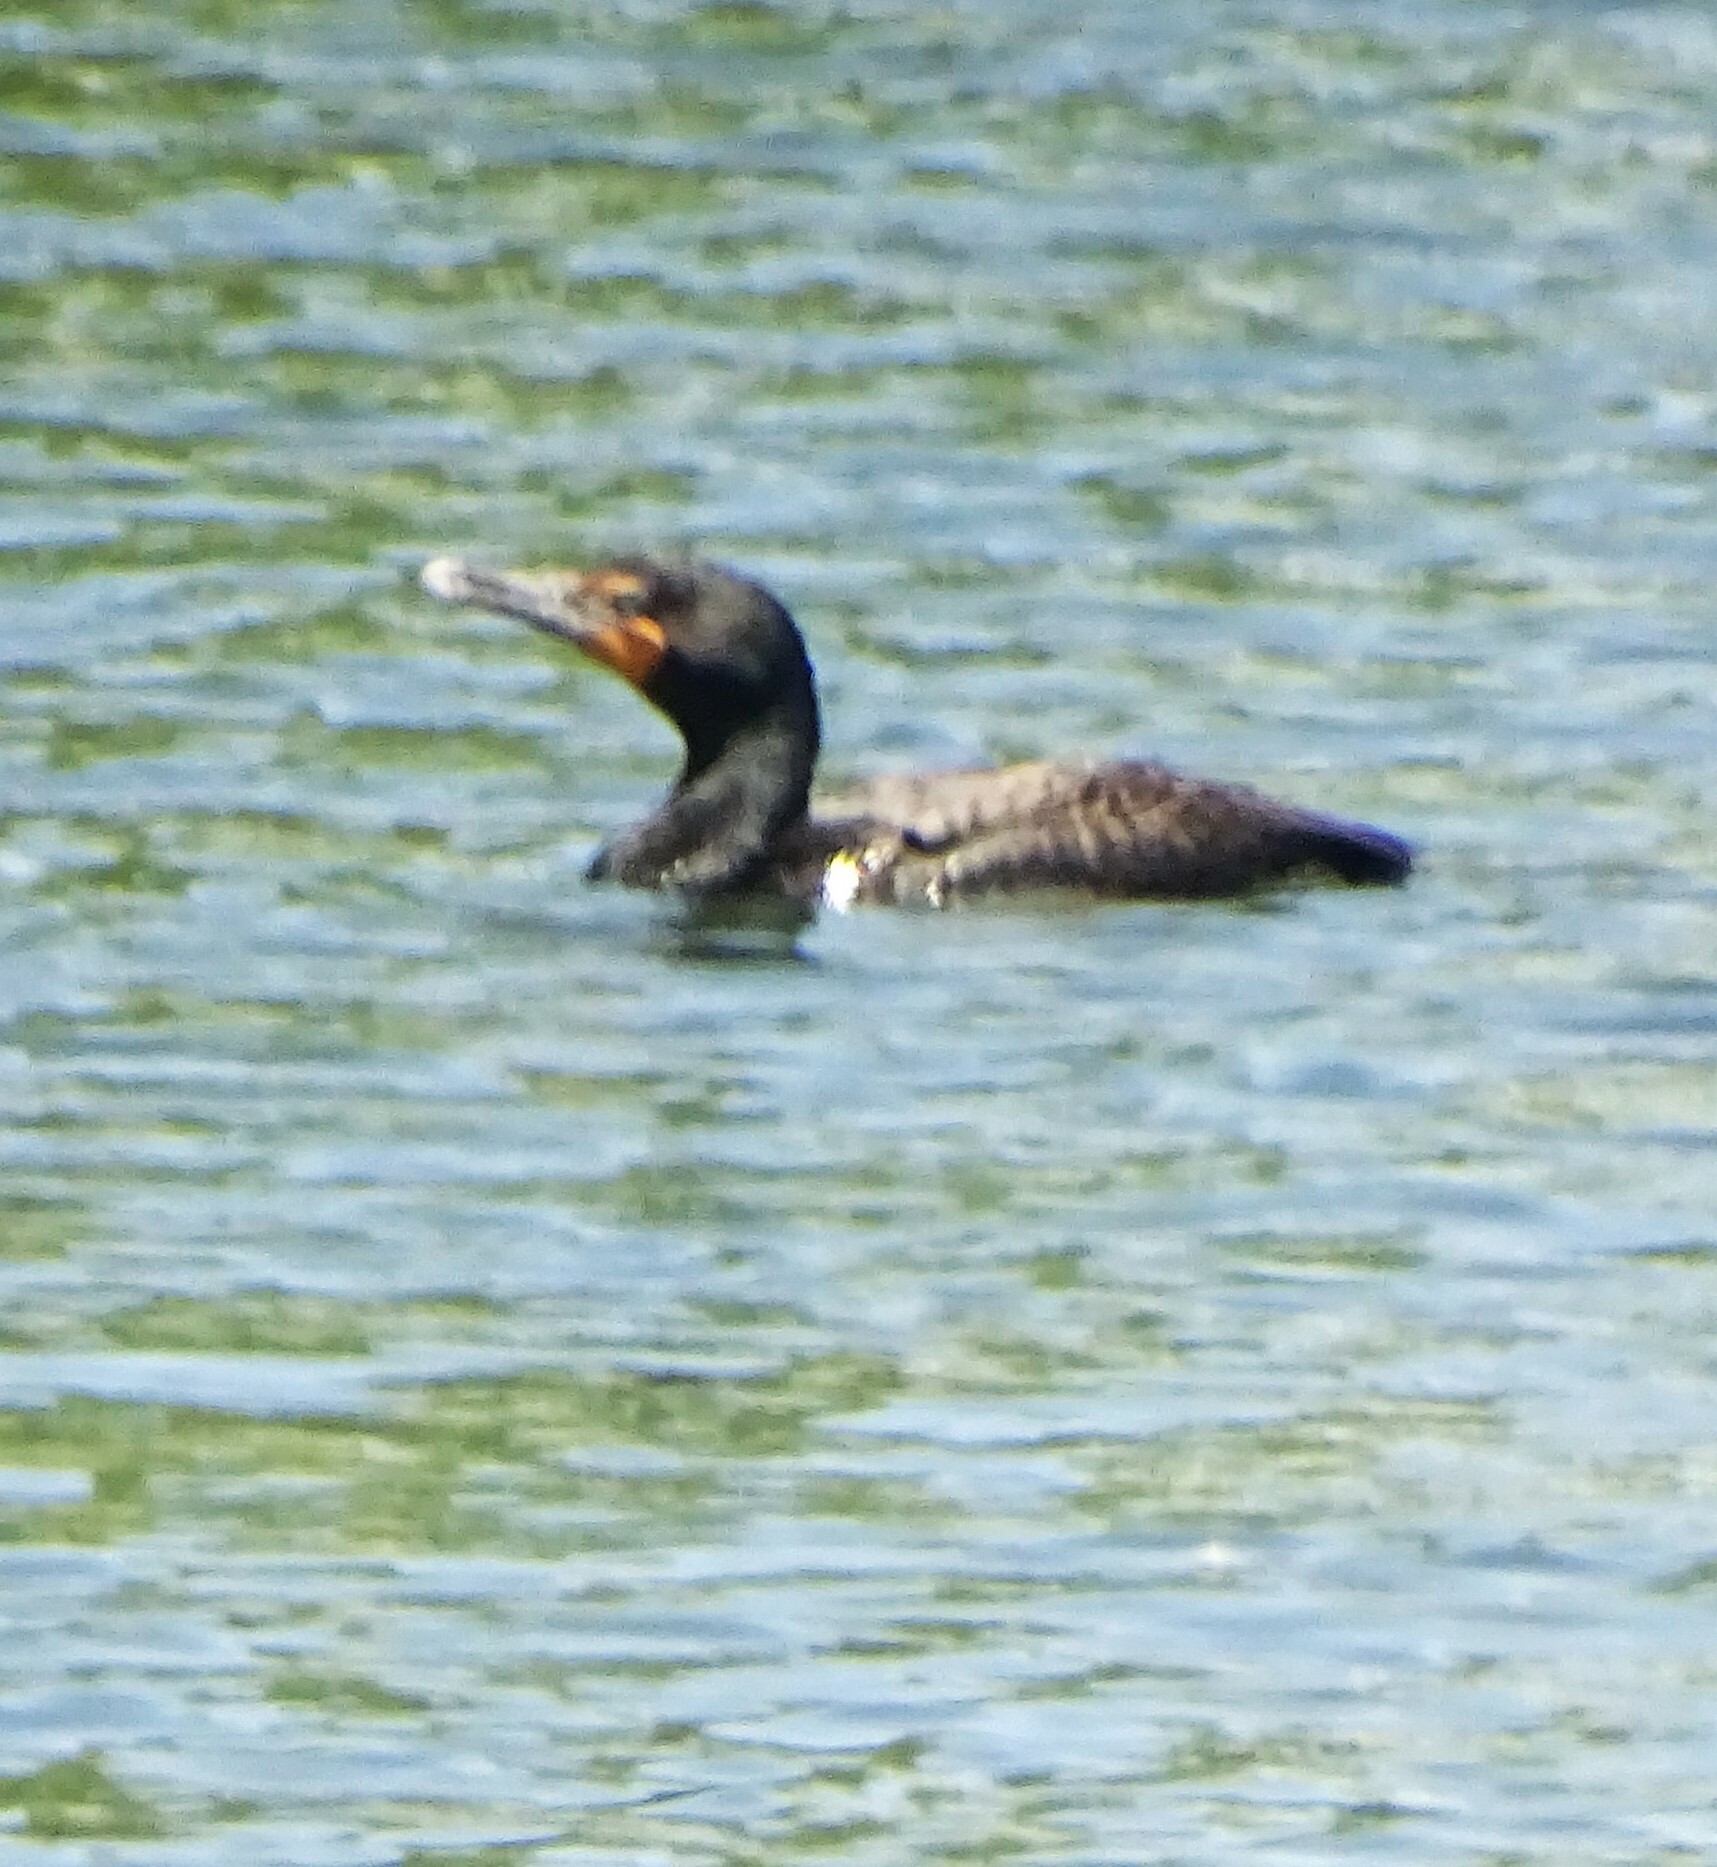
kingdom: Animalia
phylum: Chordata
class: Aves
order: Suliformes
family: Phalacrocoracidae
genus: Phalacrocorax
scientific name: Phalacrocorax auritus
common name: Double-crested cormorant
